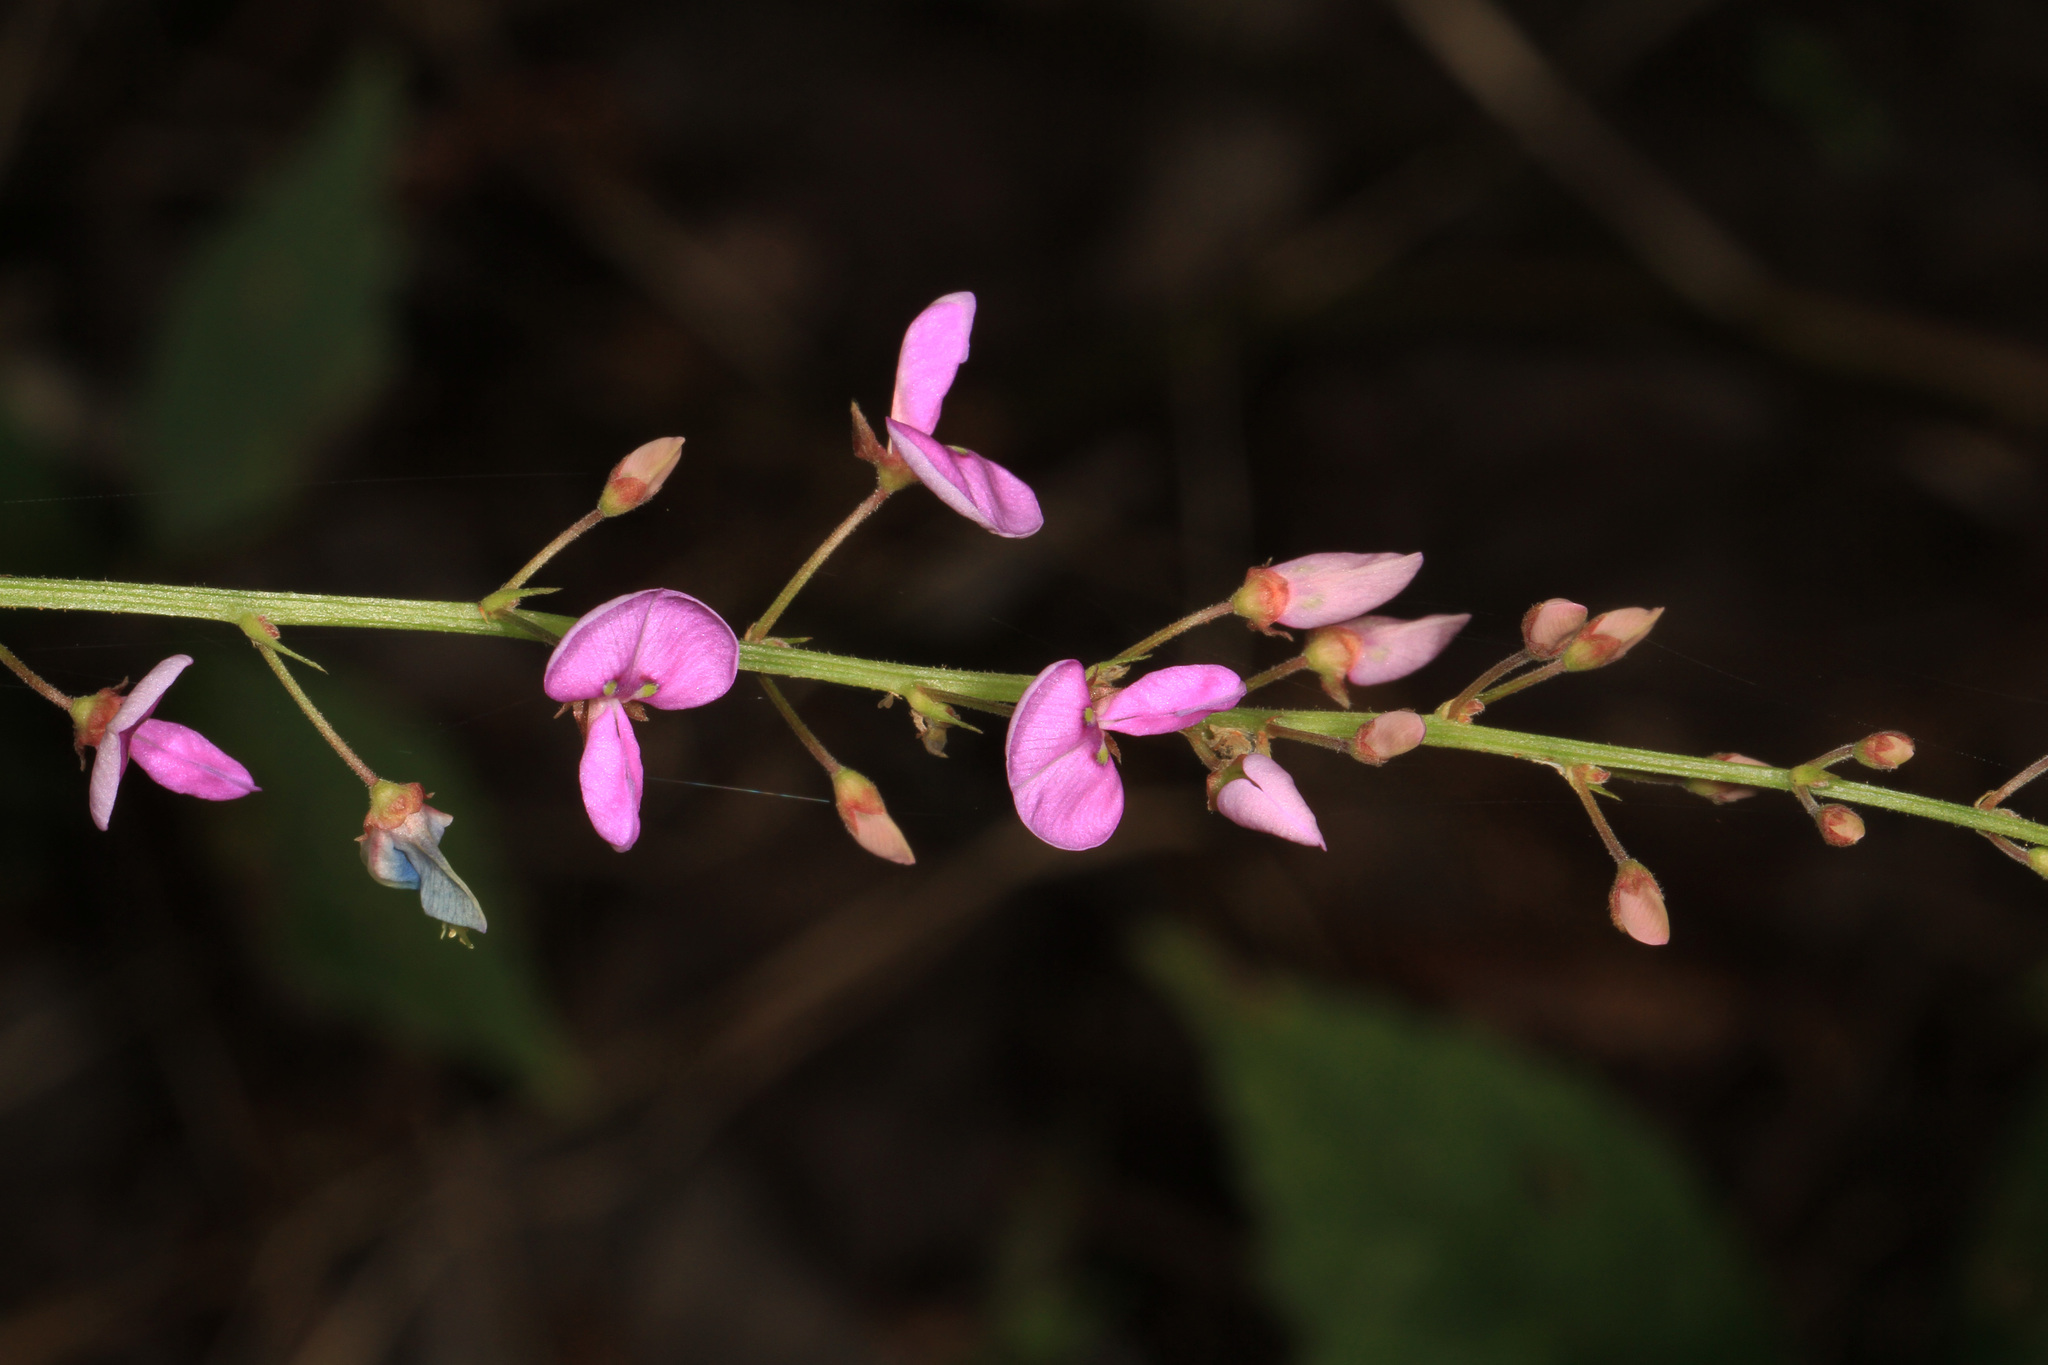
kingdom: Plantae
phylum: Tracheophyta
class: Magnoliopsida
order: Fabales
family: Fabaceae
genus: Desmodium
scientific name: Desmodium paniculatum
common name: Panicled tick-clover
